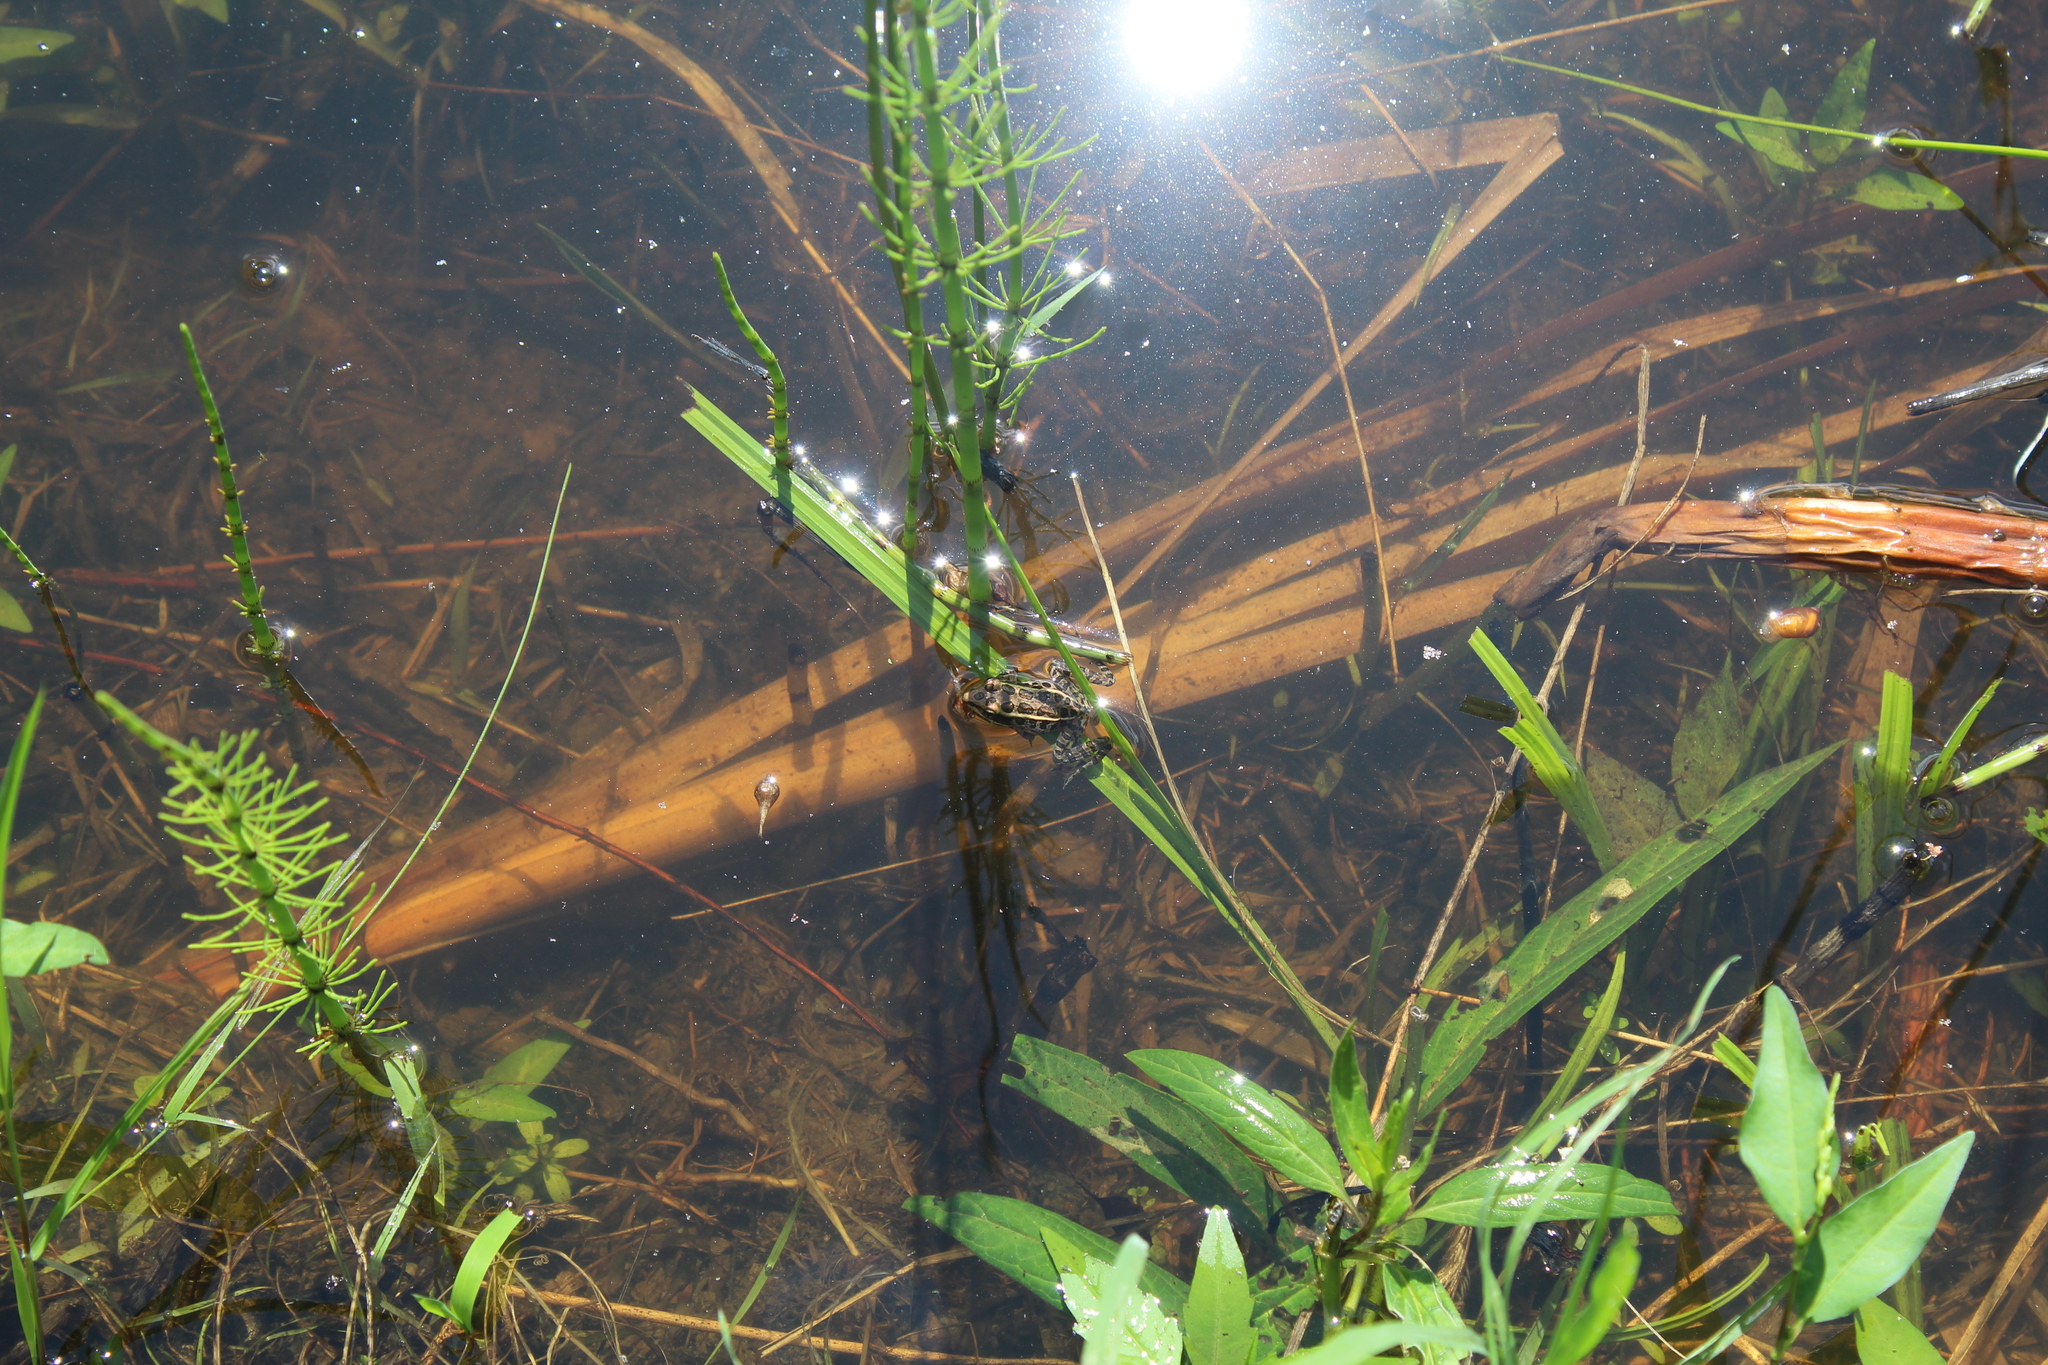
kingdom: Animalia
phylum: Chordata
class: Amphibia
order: Anura
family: Ranidae
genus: Lithobates
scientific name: Lithobates palustris
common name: Pickerel frog
